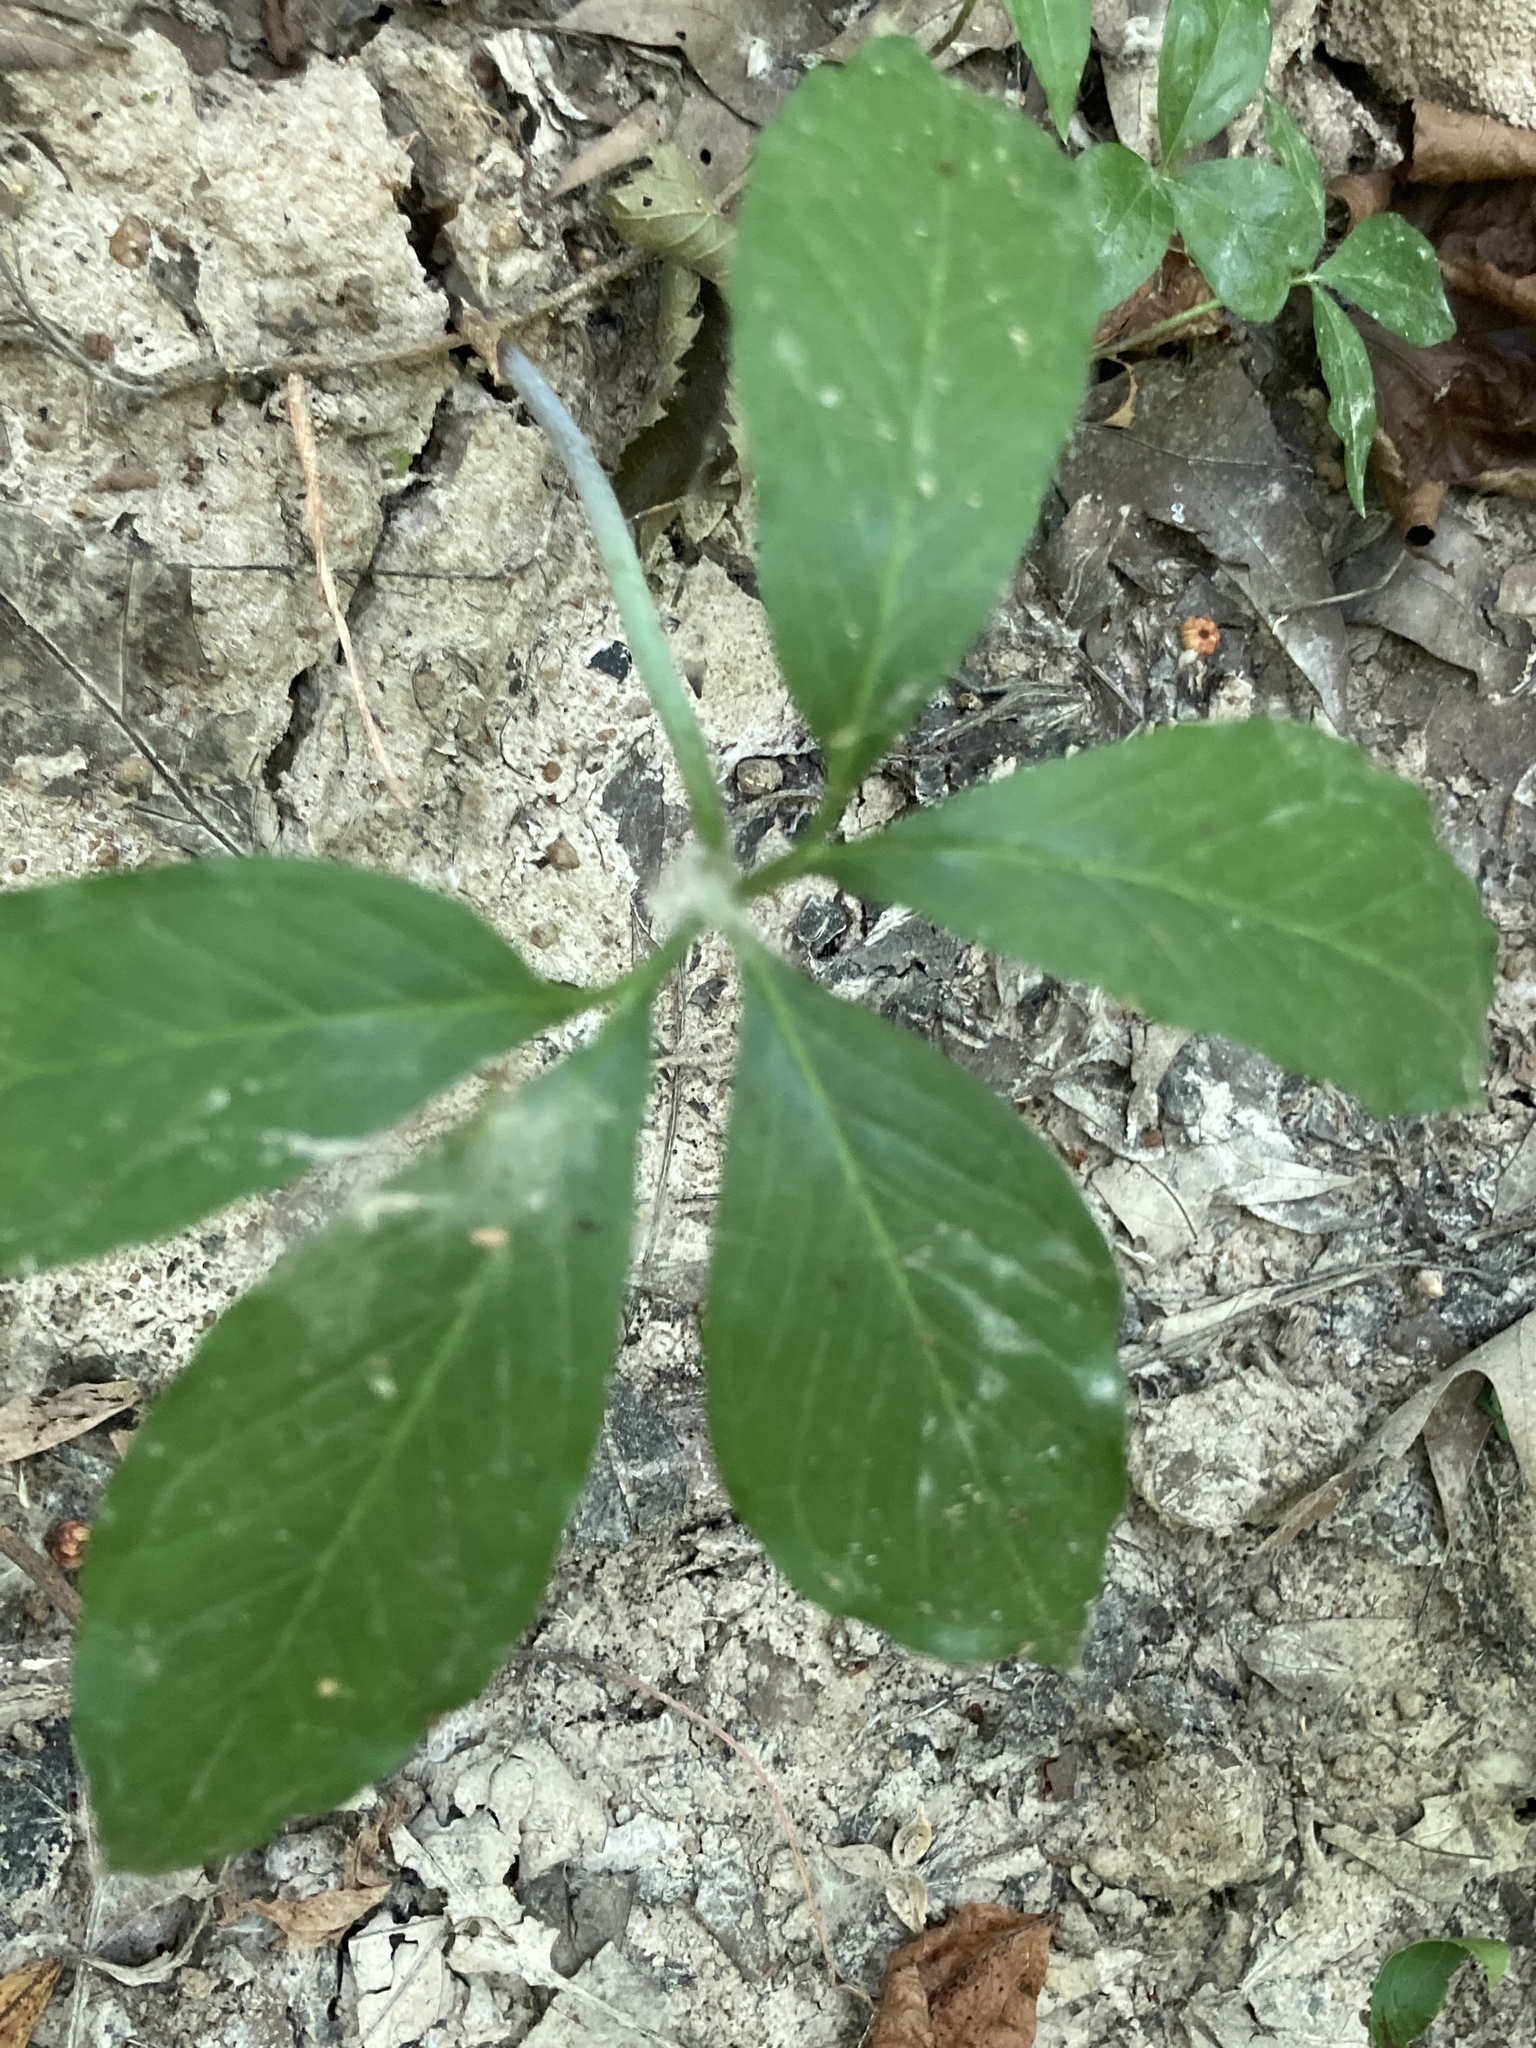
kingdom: Plantae
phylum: Tracheophyta
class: Liliopsida
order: Alismatales
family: Araceae
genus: Arisaema
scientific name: Arisaema dracontium
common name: Dragon-arum
